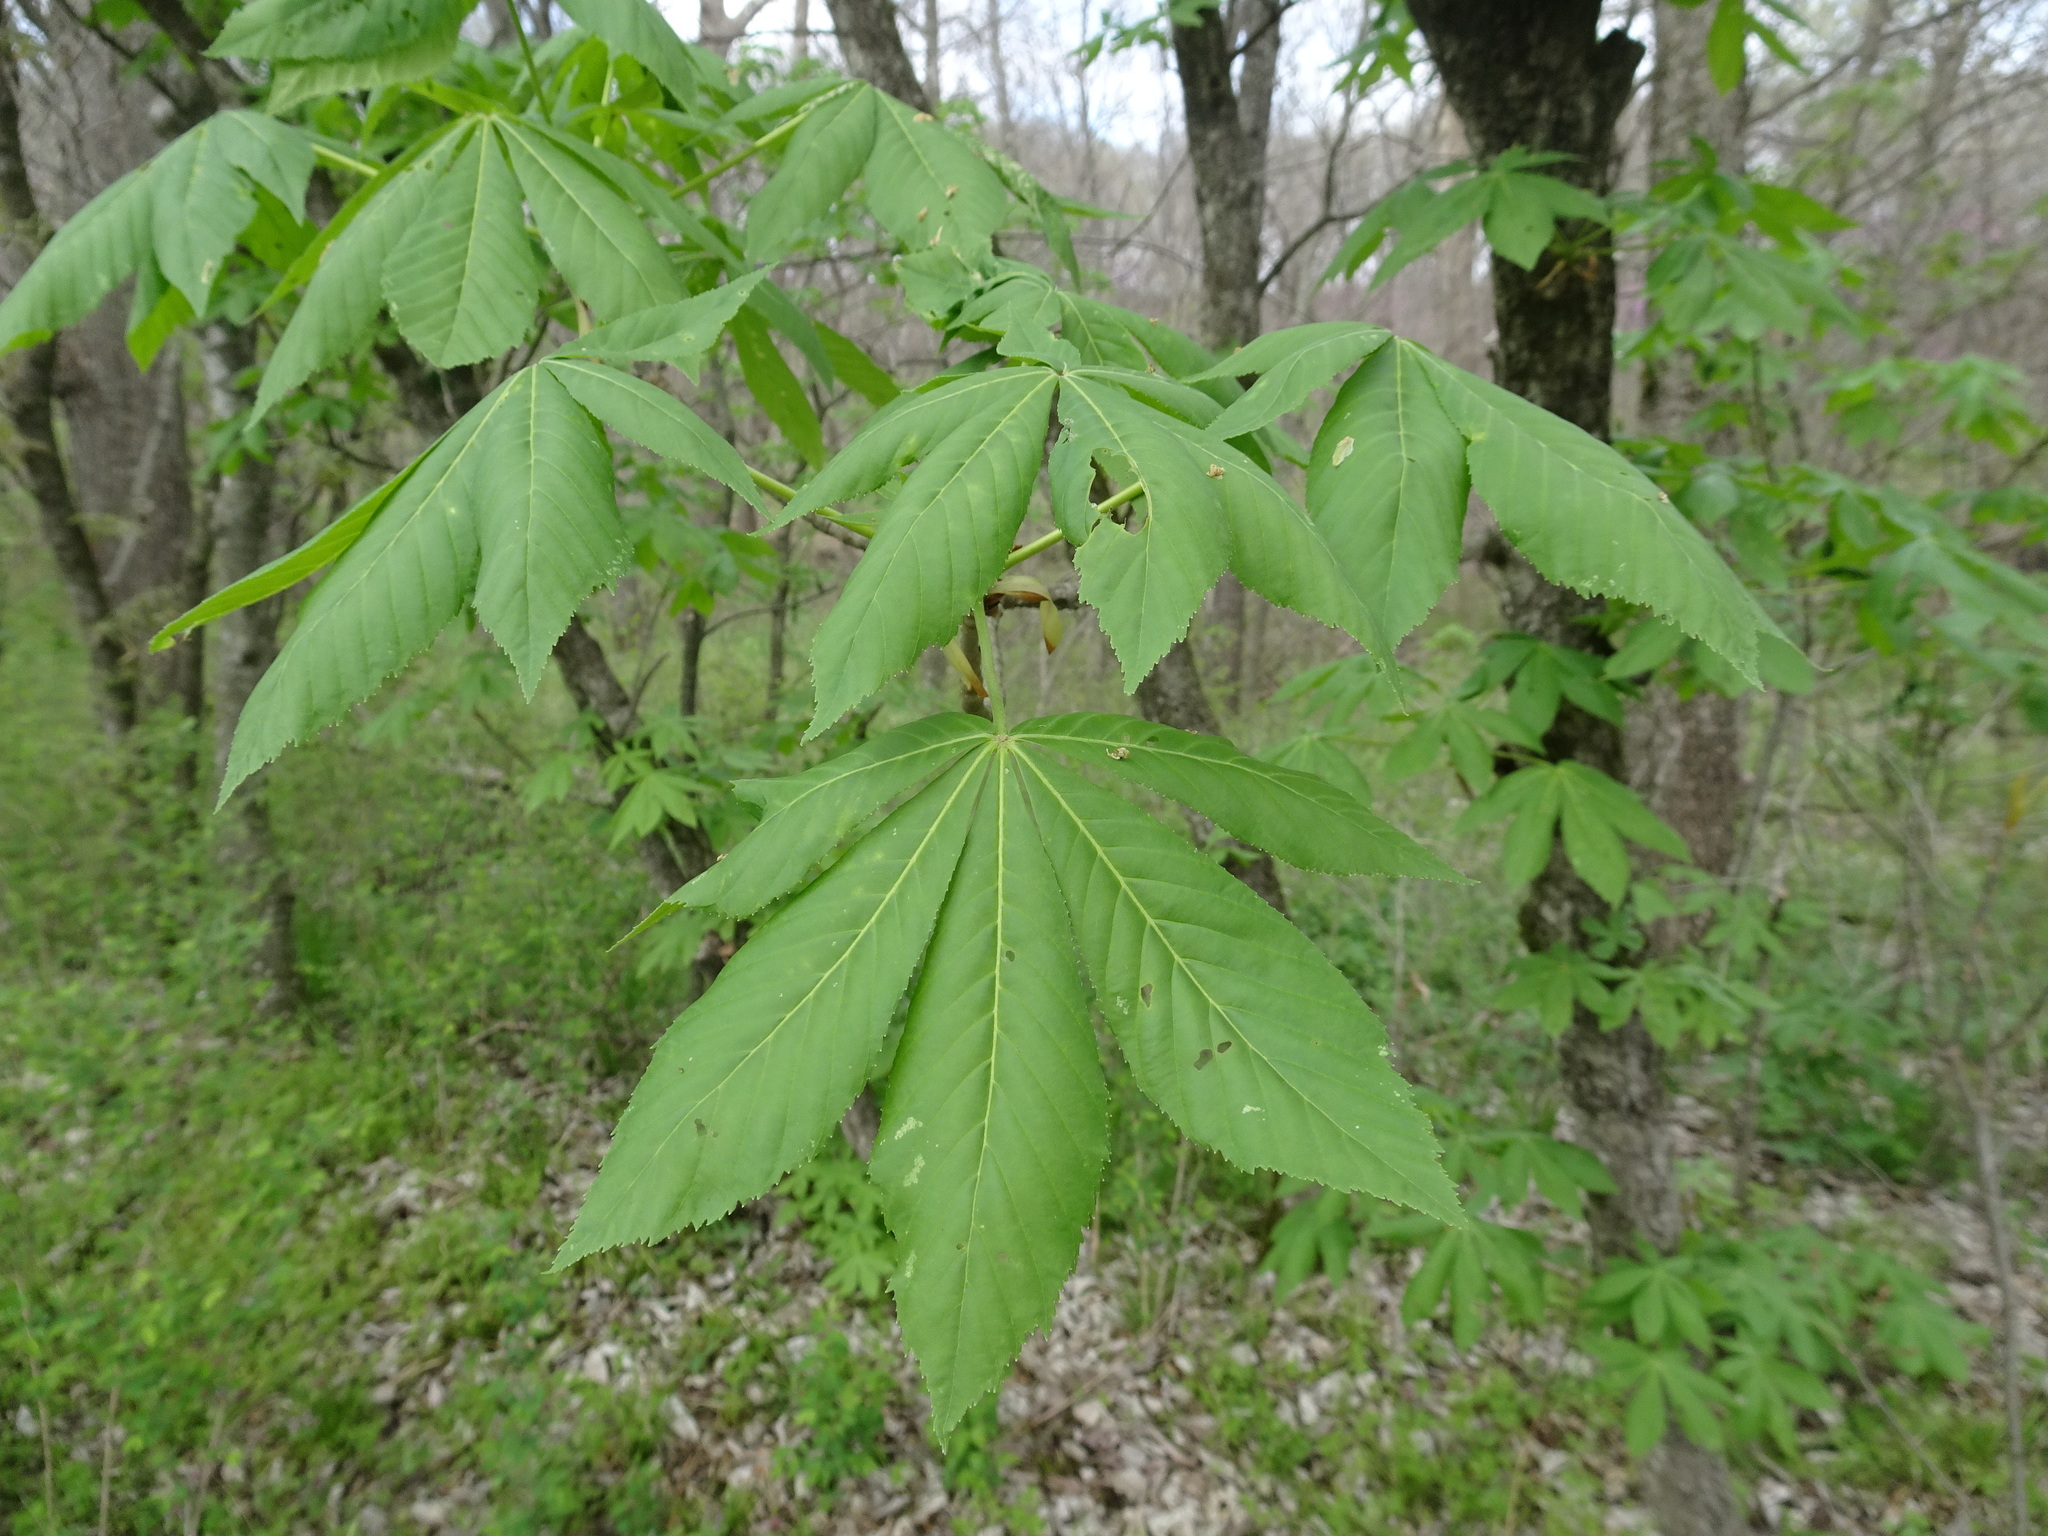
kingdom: Plantae
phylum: Tracheophyta
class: Magnoliopsida
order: Sapindales
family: Sapindaceae
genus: Aesculus
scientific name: Aesculus glabra
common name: Ohio buckeye
